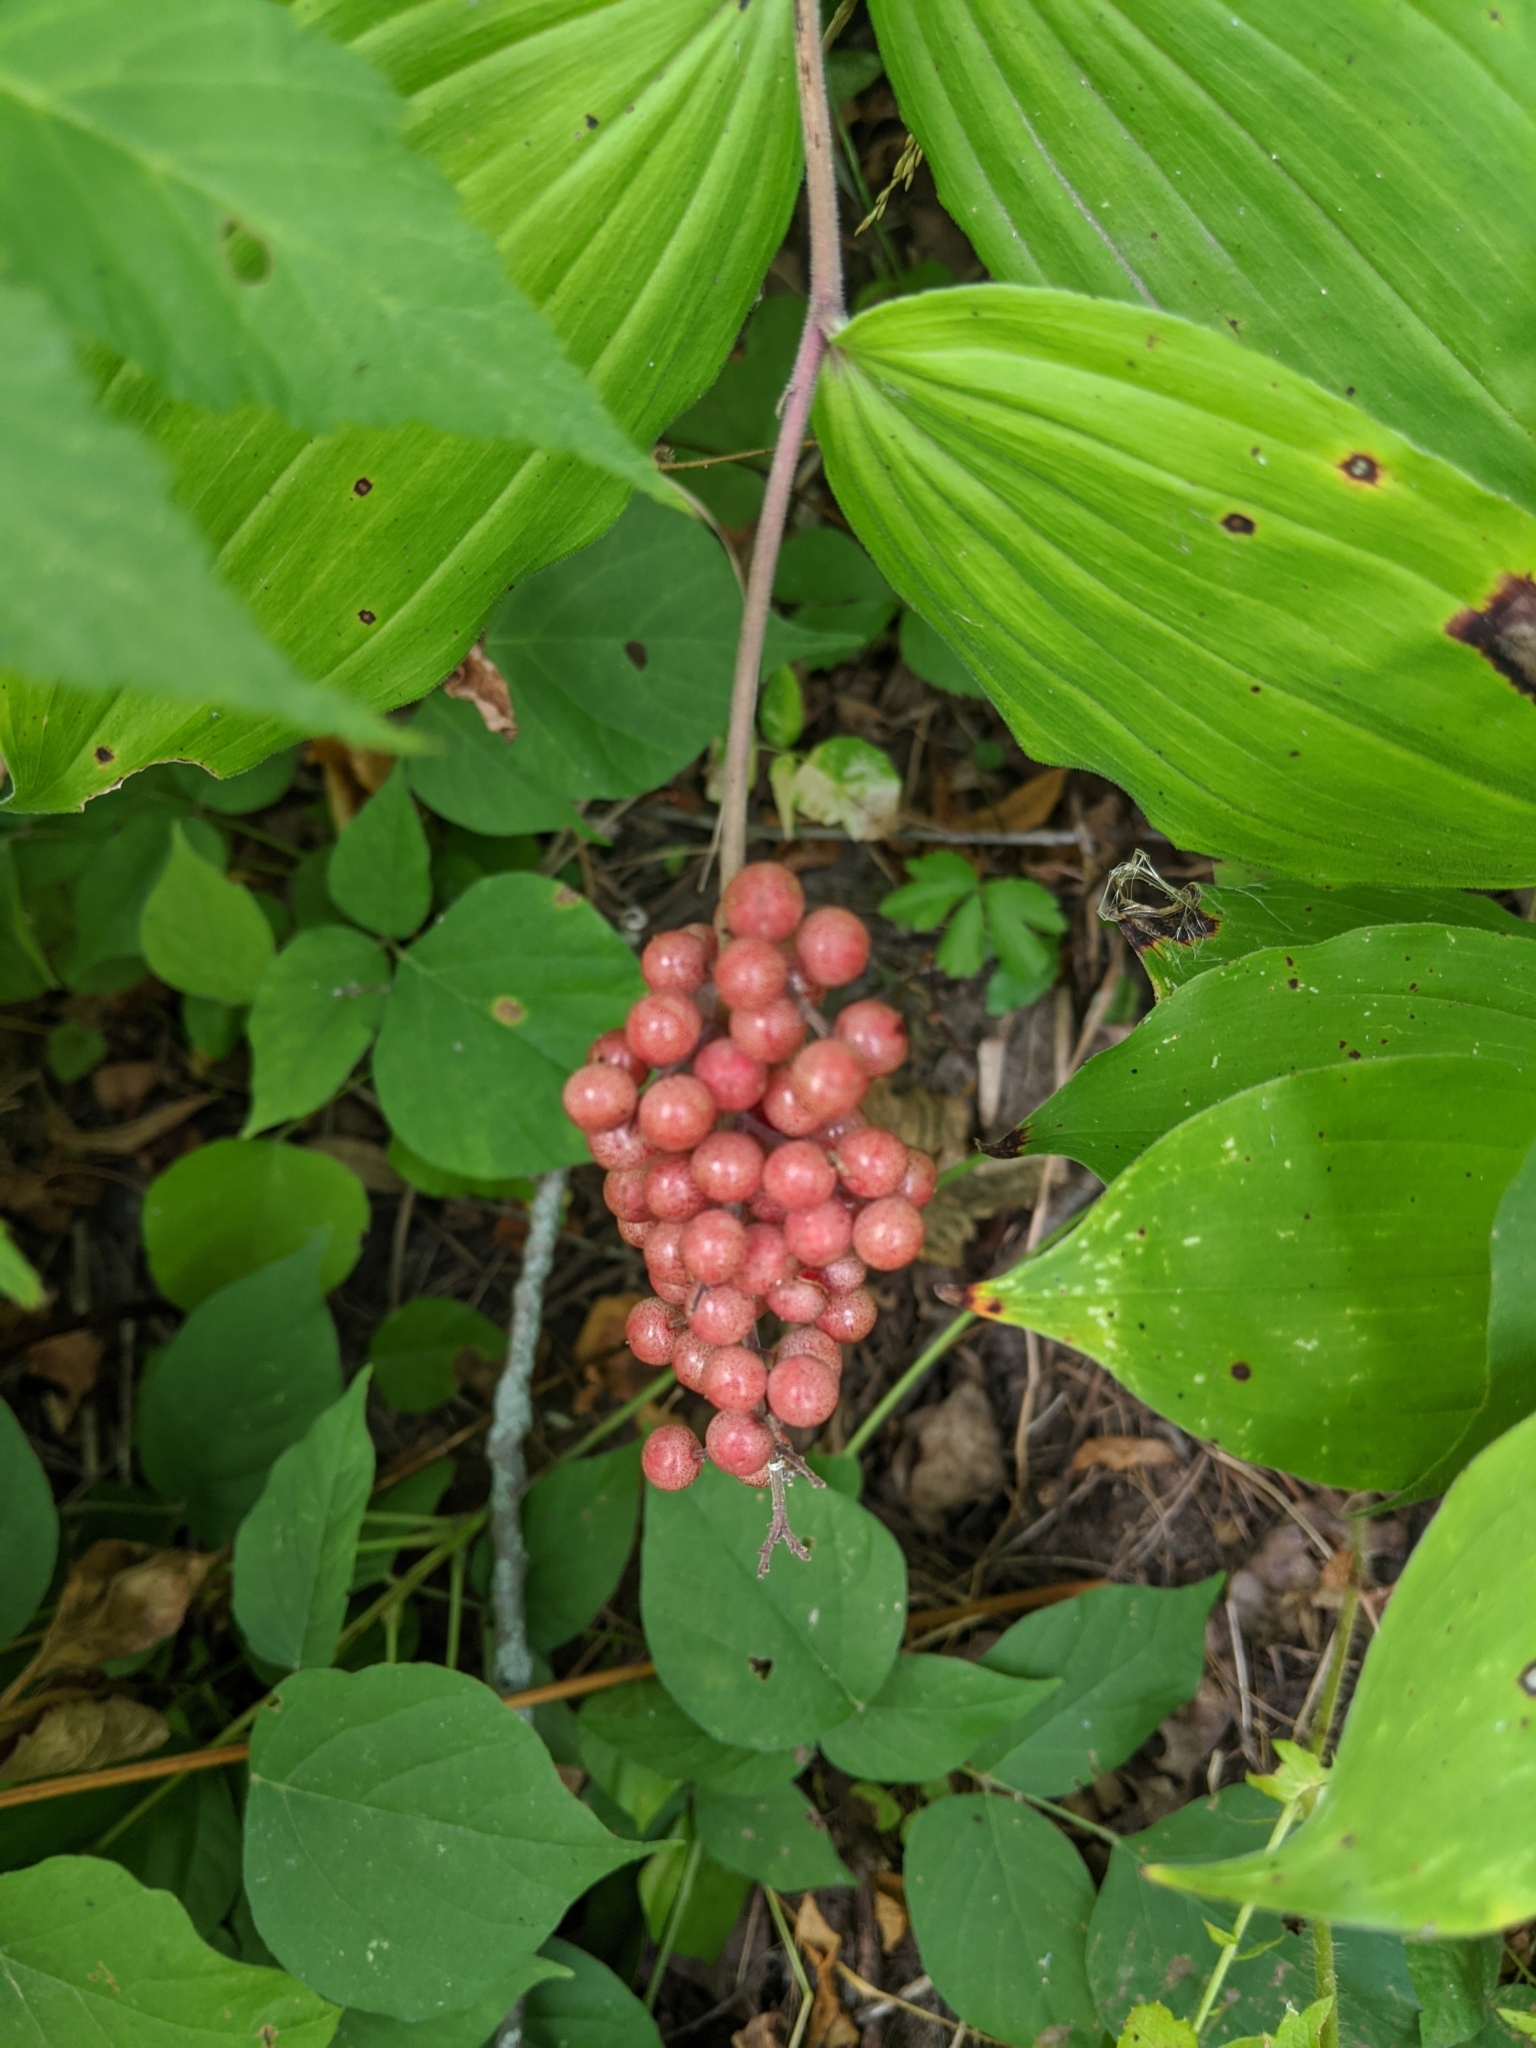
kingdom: Plantae
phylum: Tracheophyta
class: Liliopsida
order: Asparagales
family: Asparagaceae
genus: Maianthemum
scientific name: Maianthemum racemosum
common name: False spikenard
